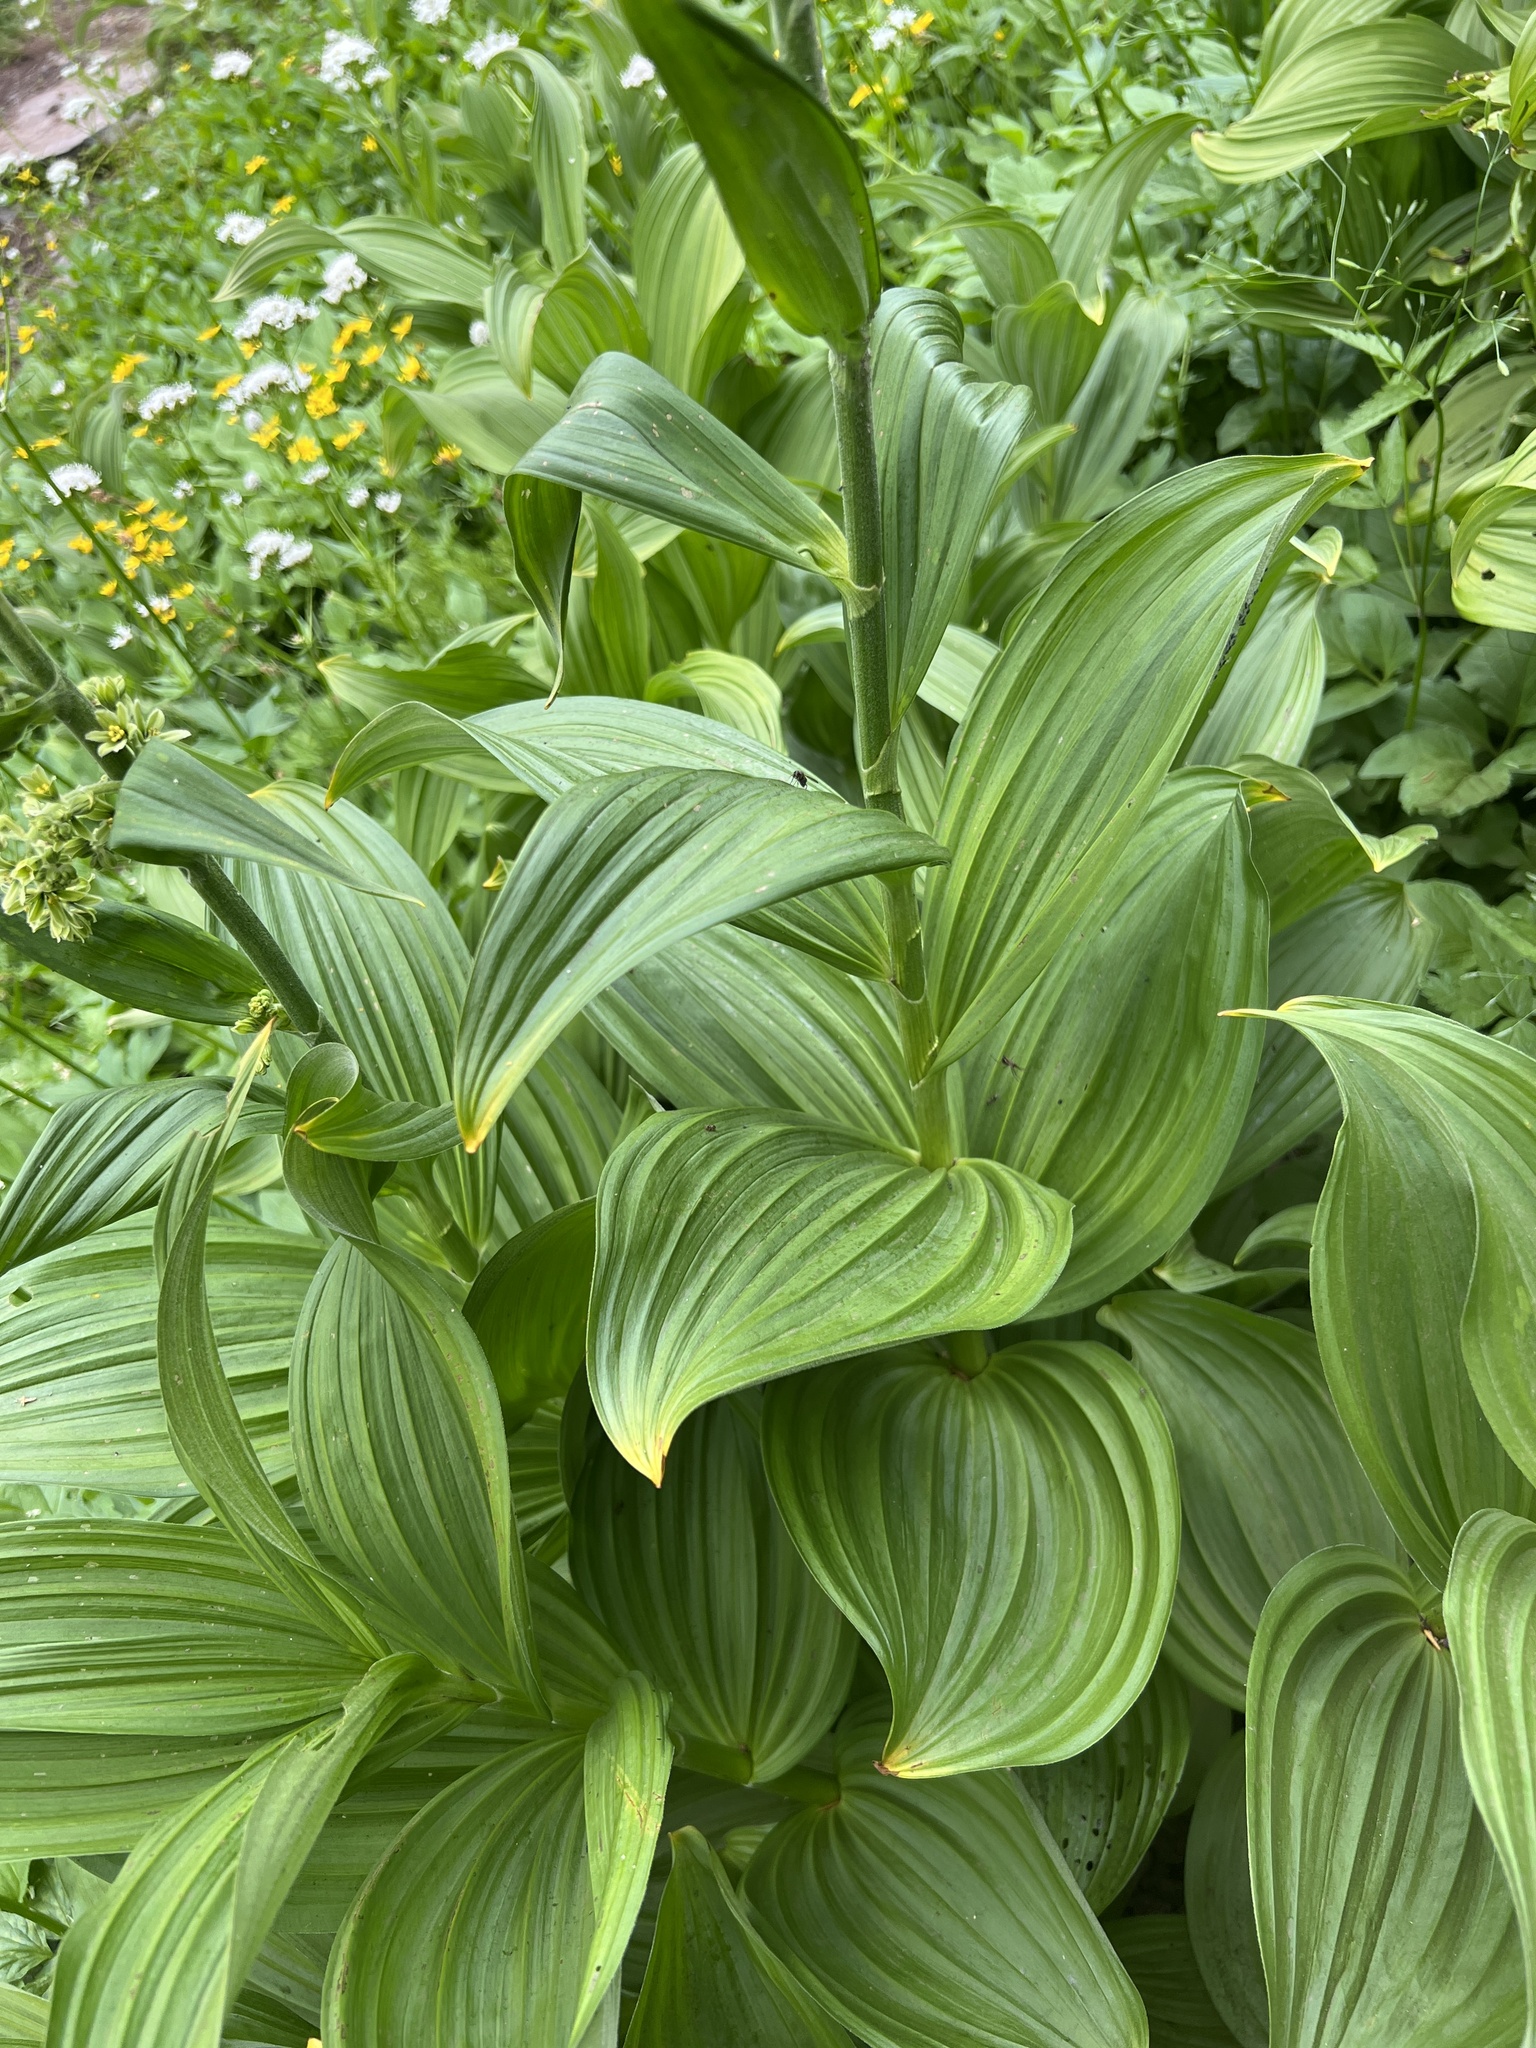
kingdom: Plantae
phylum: Tracheophyta
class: Liliopsida
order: Liliales
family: Melanthiaceae
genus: Veratrum
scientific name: Veratrum viride
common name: American false hellebore
